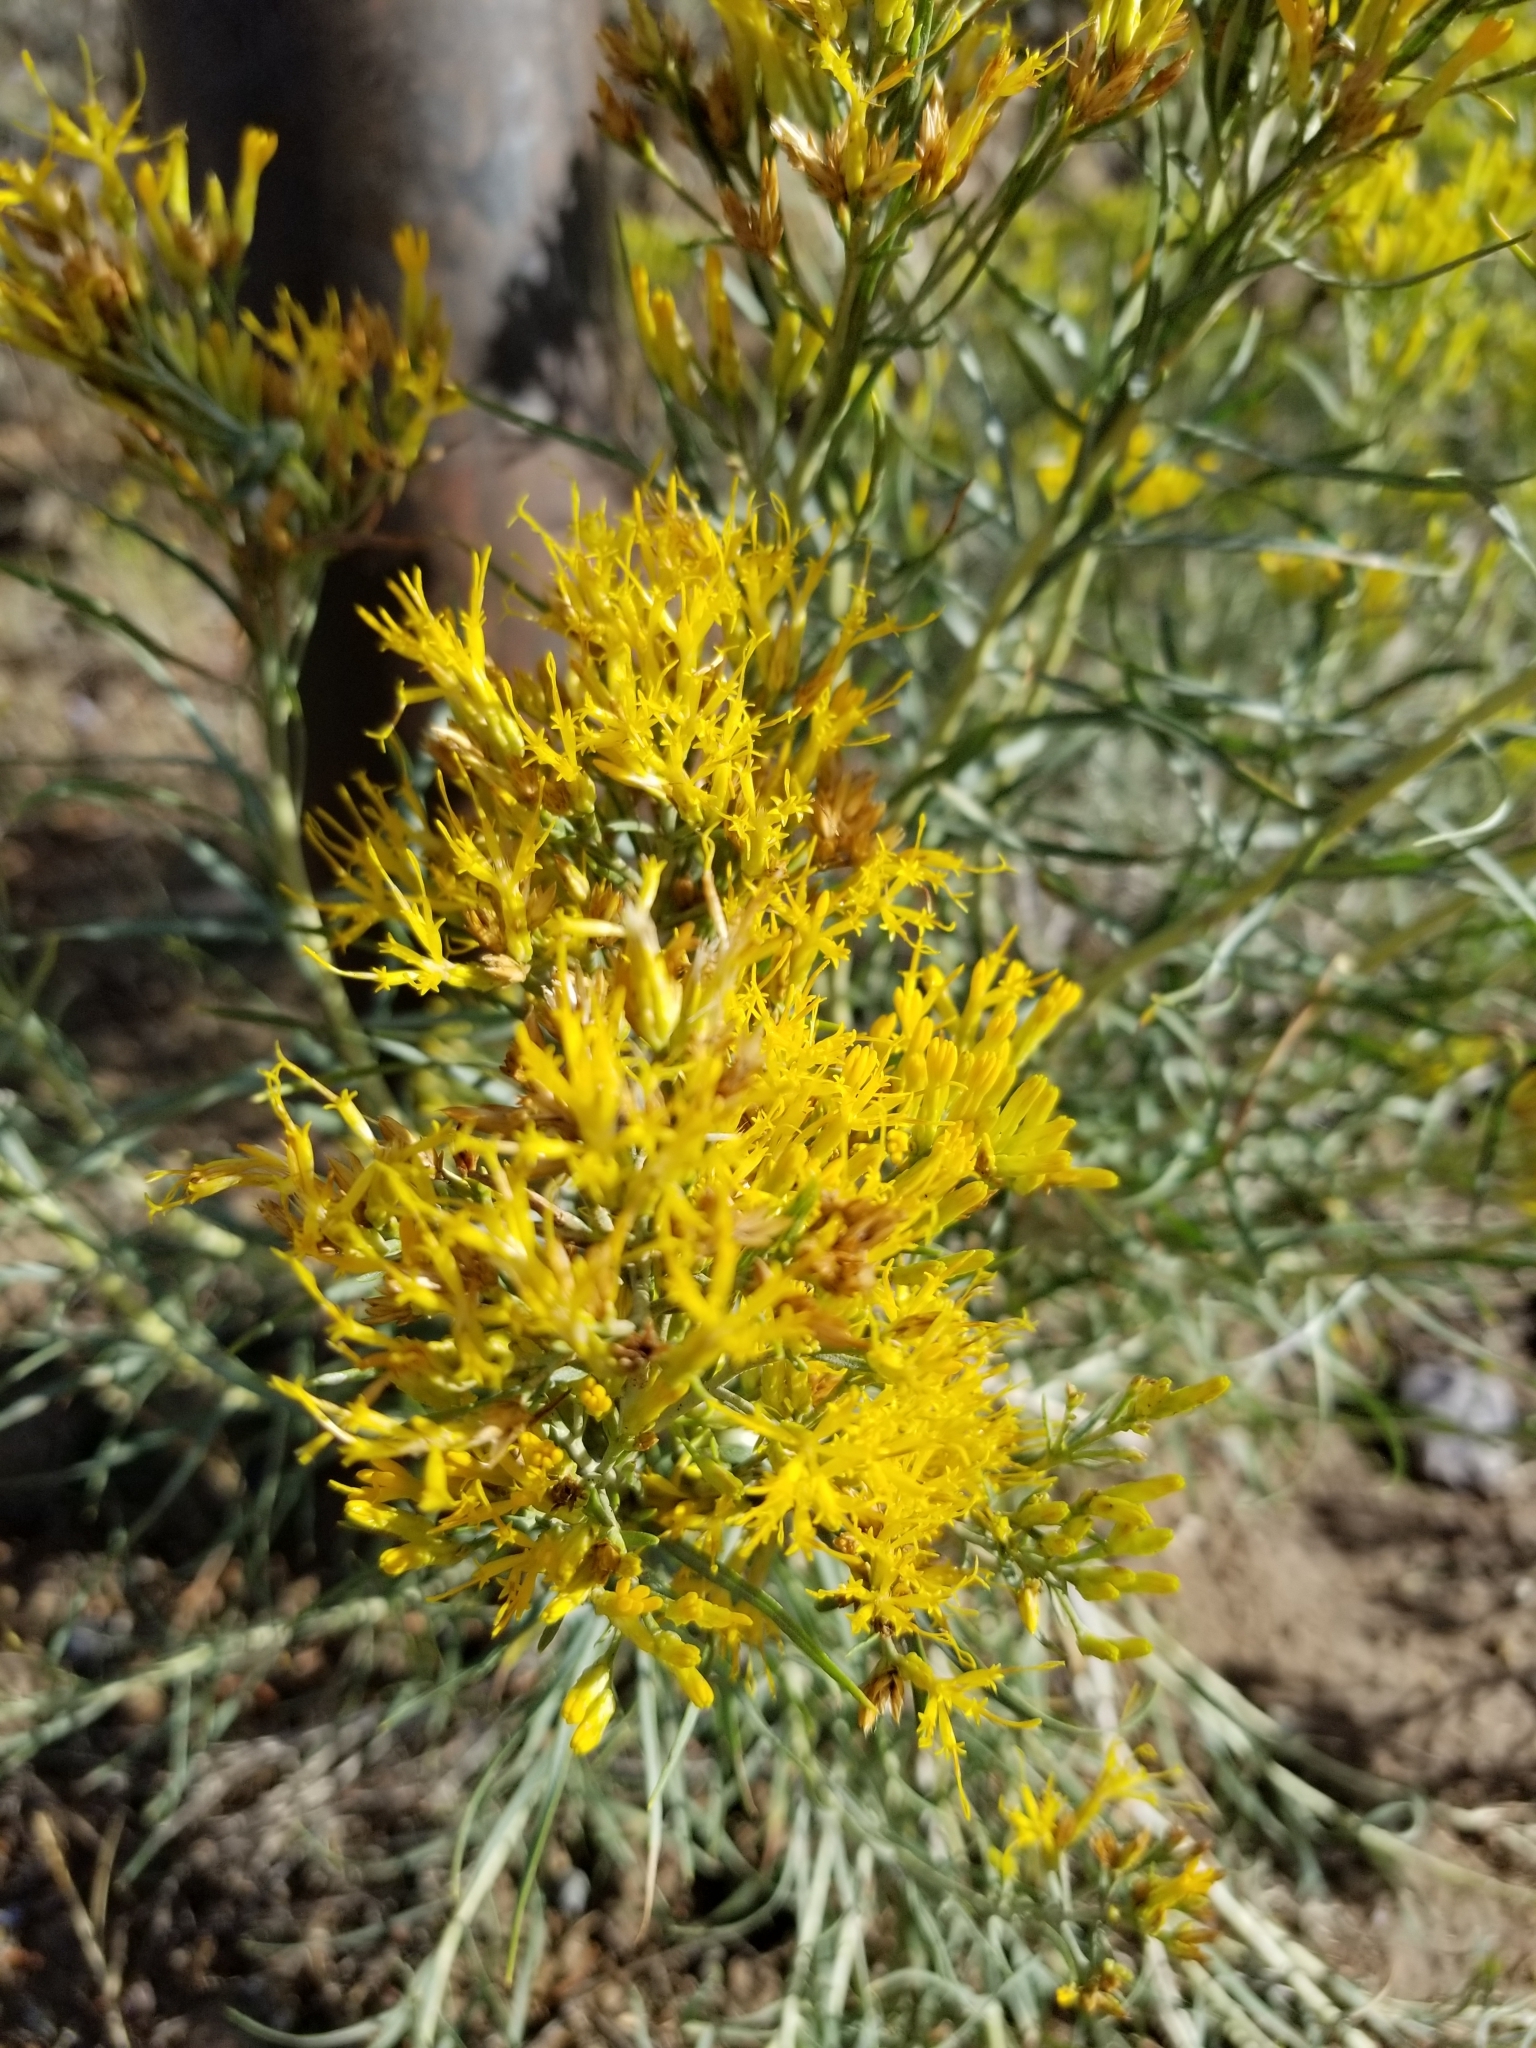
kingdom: Plantae
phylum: Tracheophyta
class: Magnoliopsida
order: Asterales
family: Asteraceae
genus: Ericameria
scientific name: Ericameria nauseosa
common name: Rubber rabbitbrush
